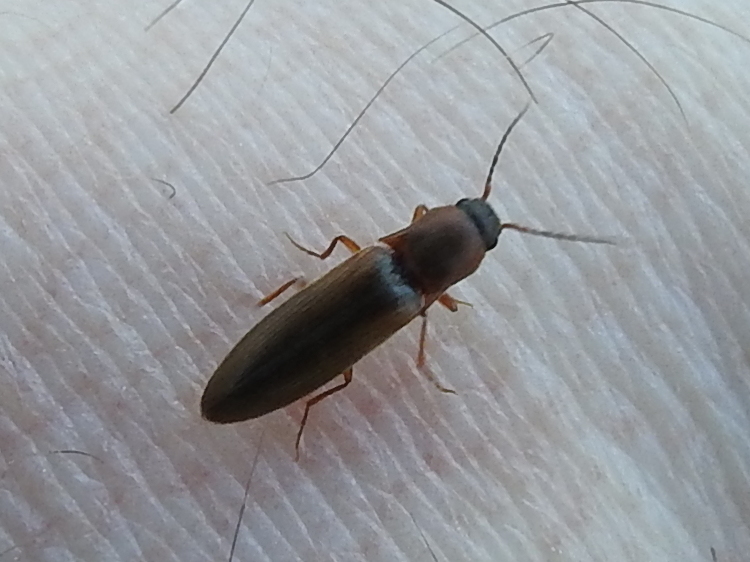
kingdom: Animalia
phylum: Arthropoda
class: Insecta
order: Coleoptera
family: Elateridae
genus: Dalopius
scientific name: Dalopius marginatus
